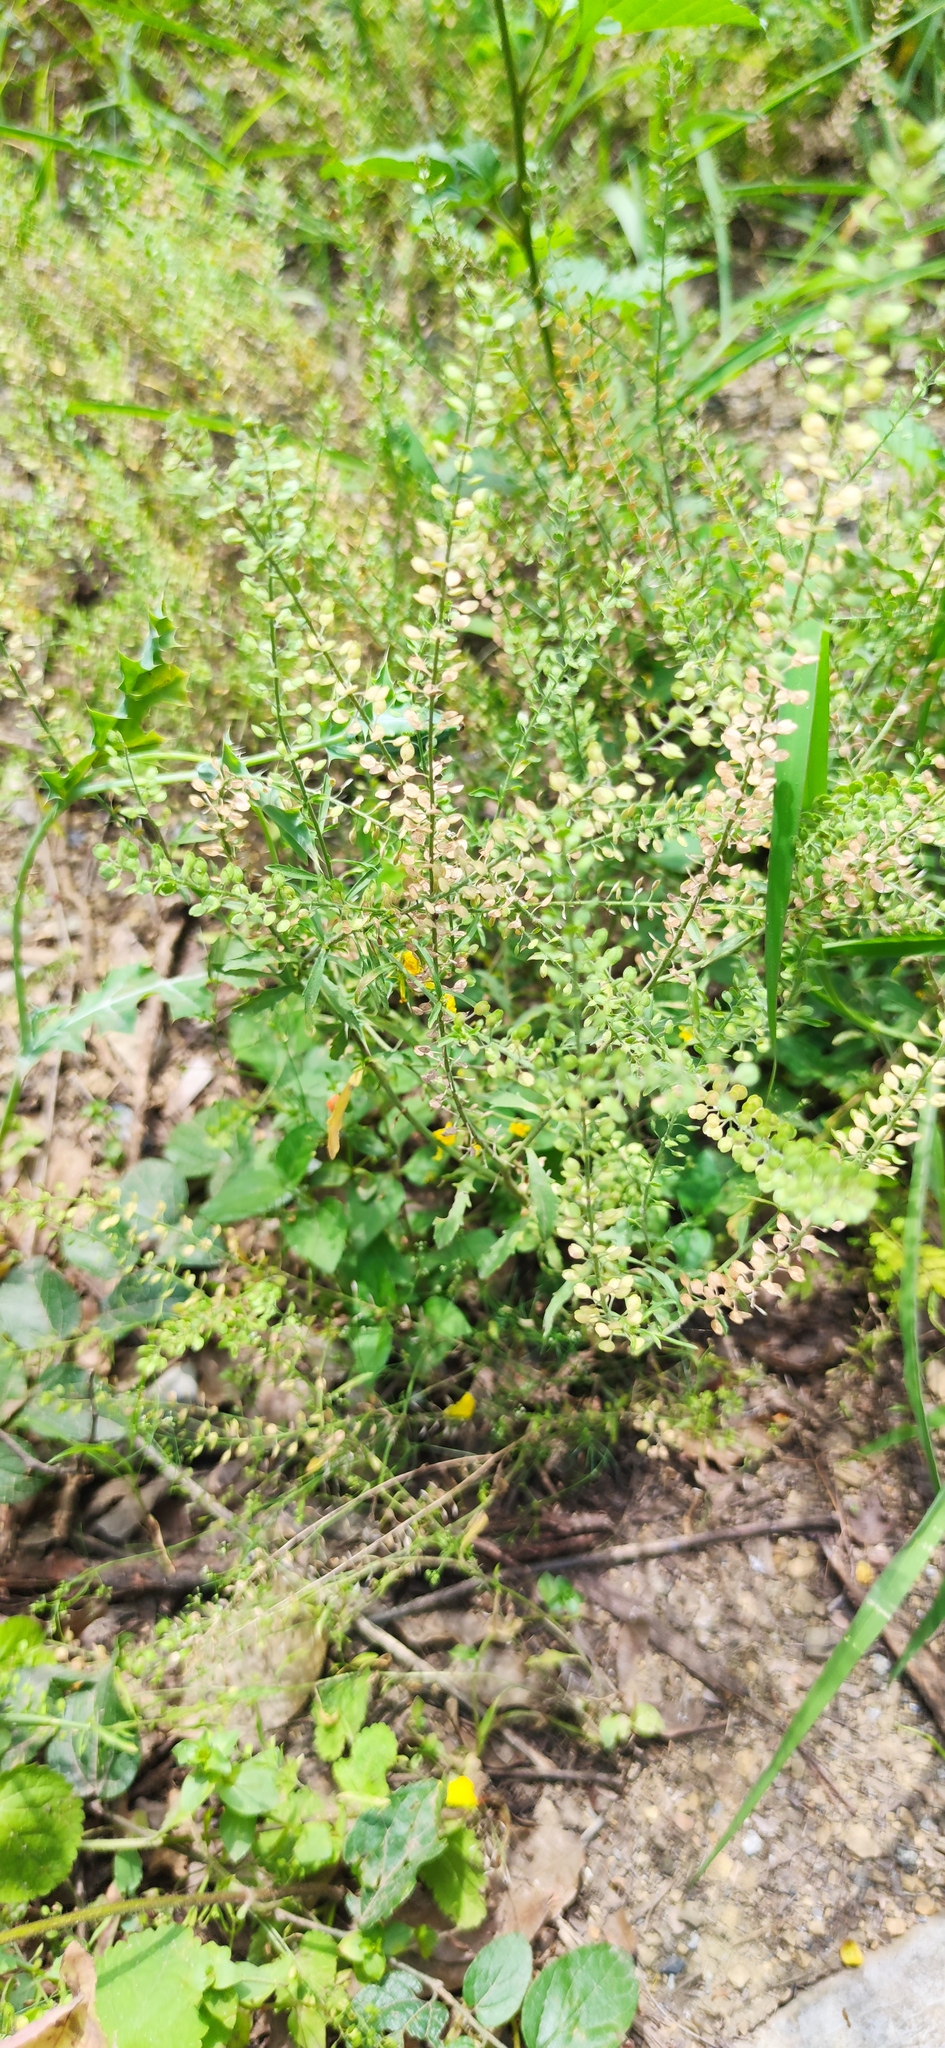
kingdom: Plantae
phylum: Tracheophyta
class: Magnoliopsida
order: Brassicales
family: Brassicaceae
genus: Lepidium
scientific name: Lepidium virginicum
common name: Least pepperwort
